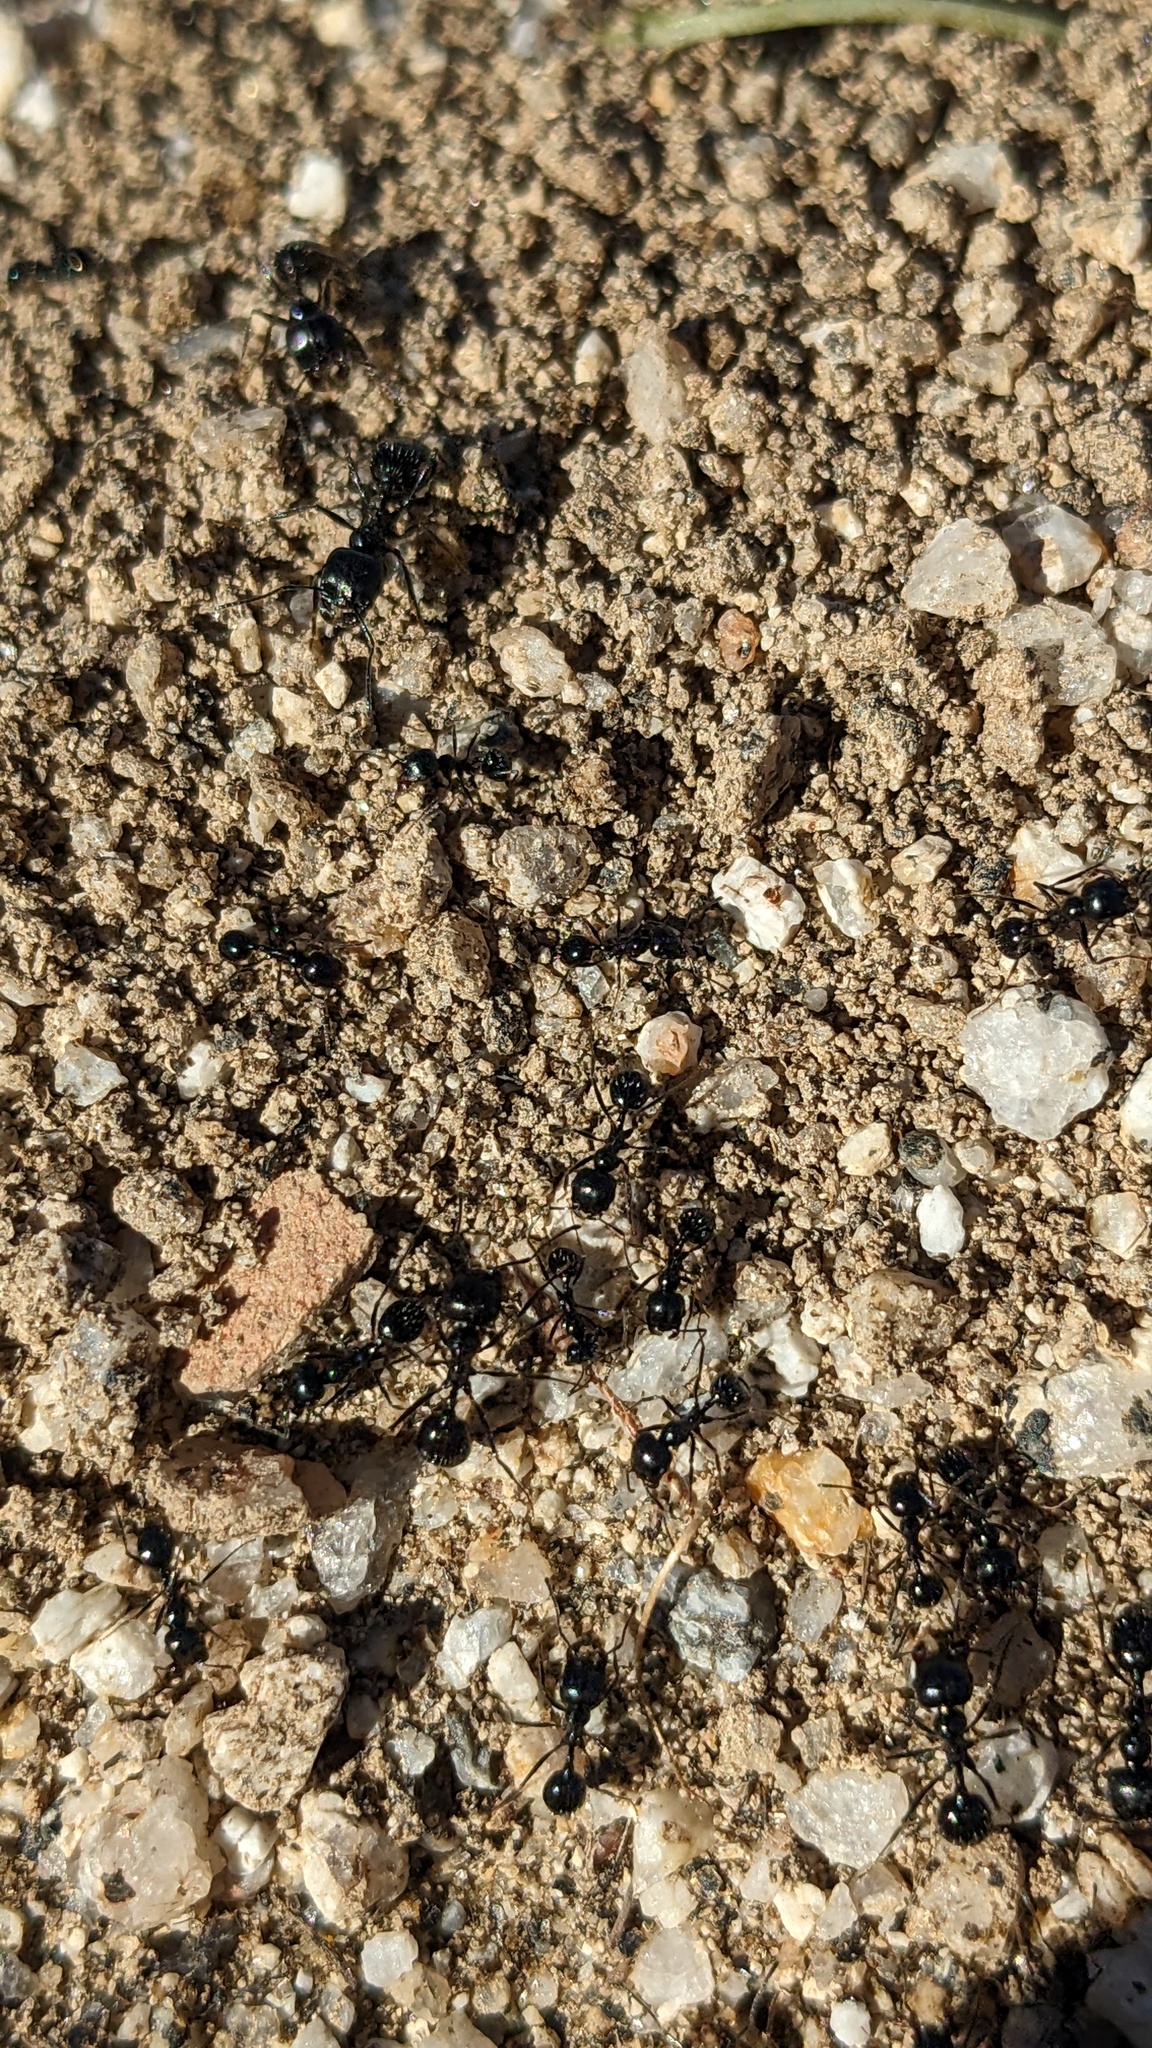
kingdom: Animalia
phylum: Arthropoda
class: Insecta
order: Hymenoptera
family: Formicidae
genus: Messor
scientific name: Messor pergandei
